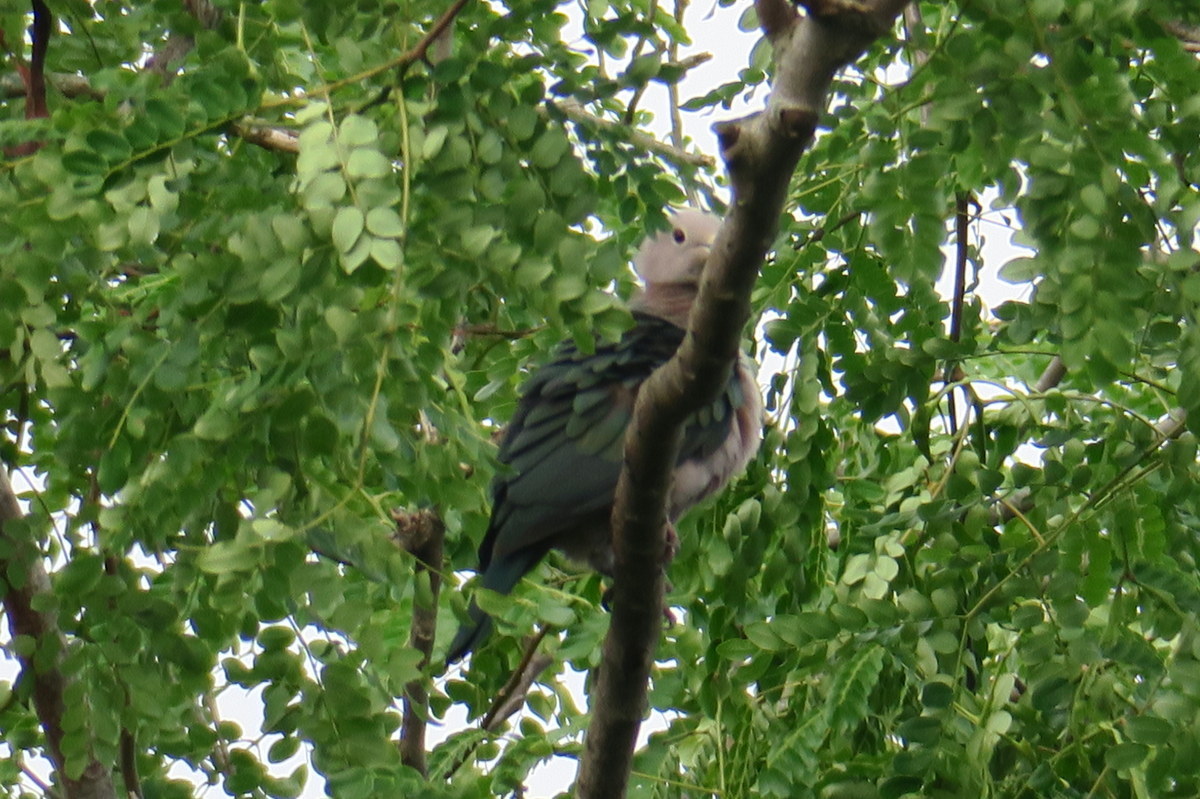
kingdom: Animalia
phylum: Chordata
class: Aves
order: Columbiformes
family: Columbidae
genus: Ducula
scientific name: Ducula aenea
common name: Green imperial pigeon
